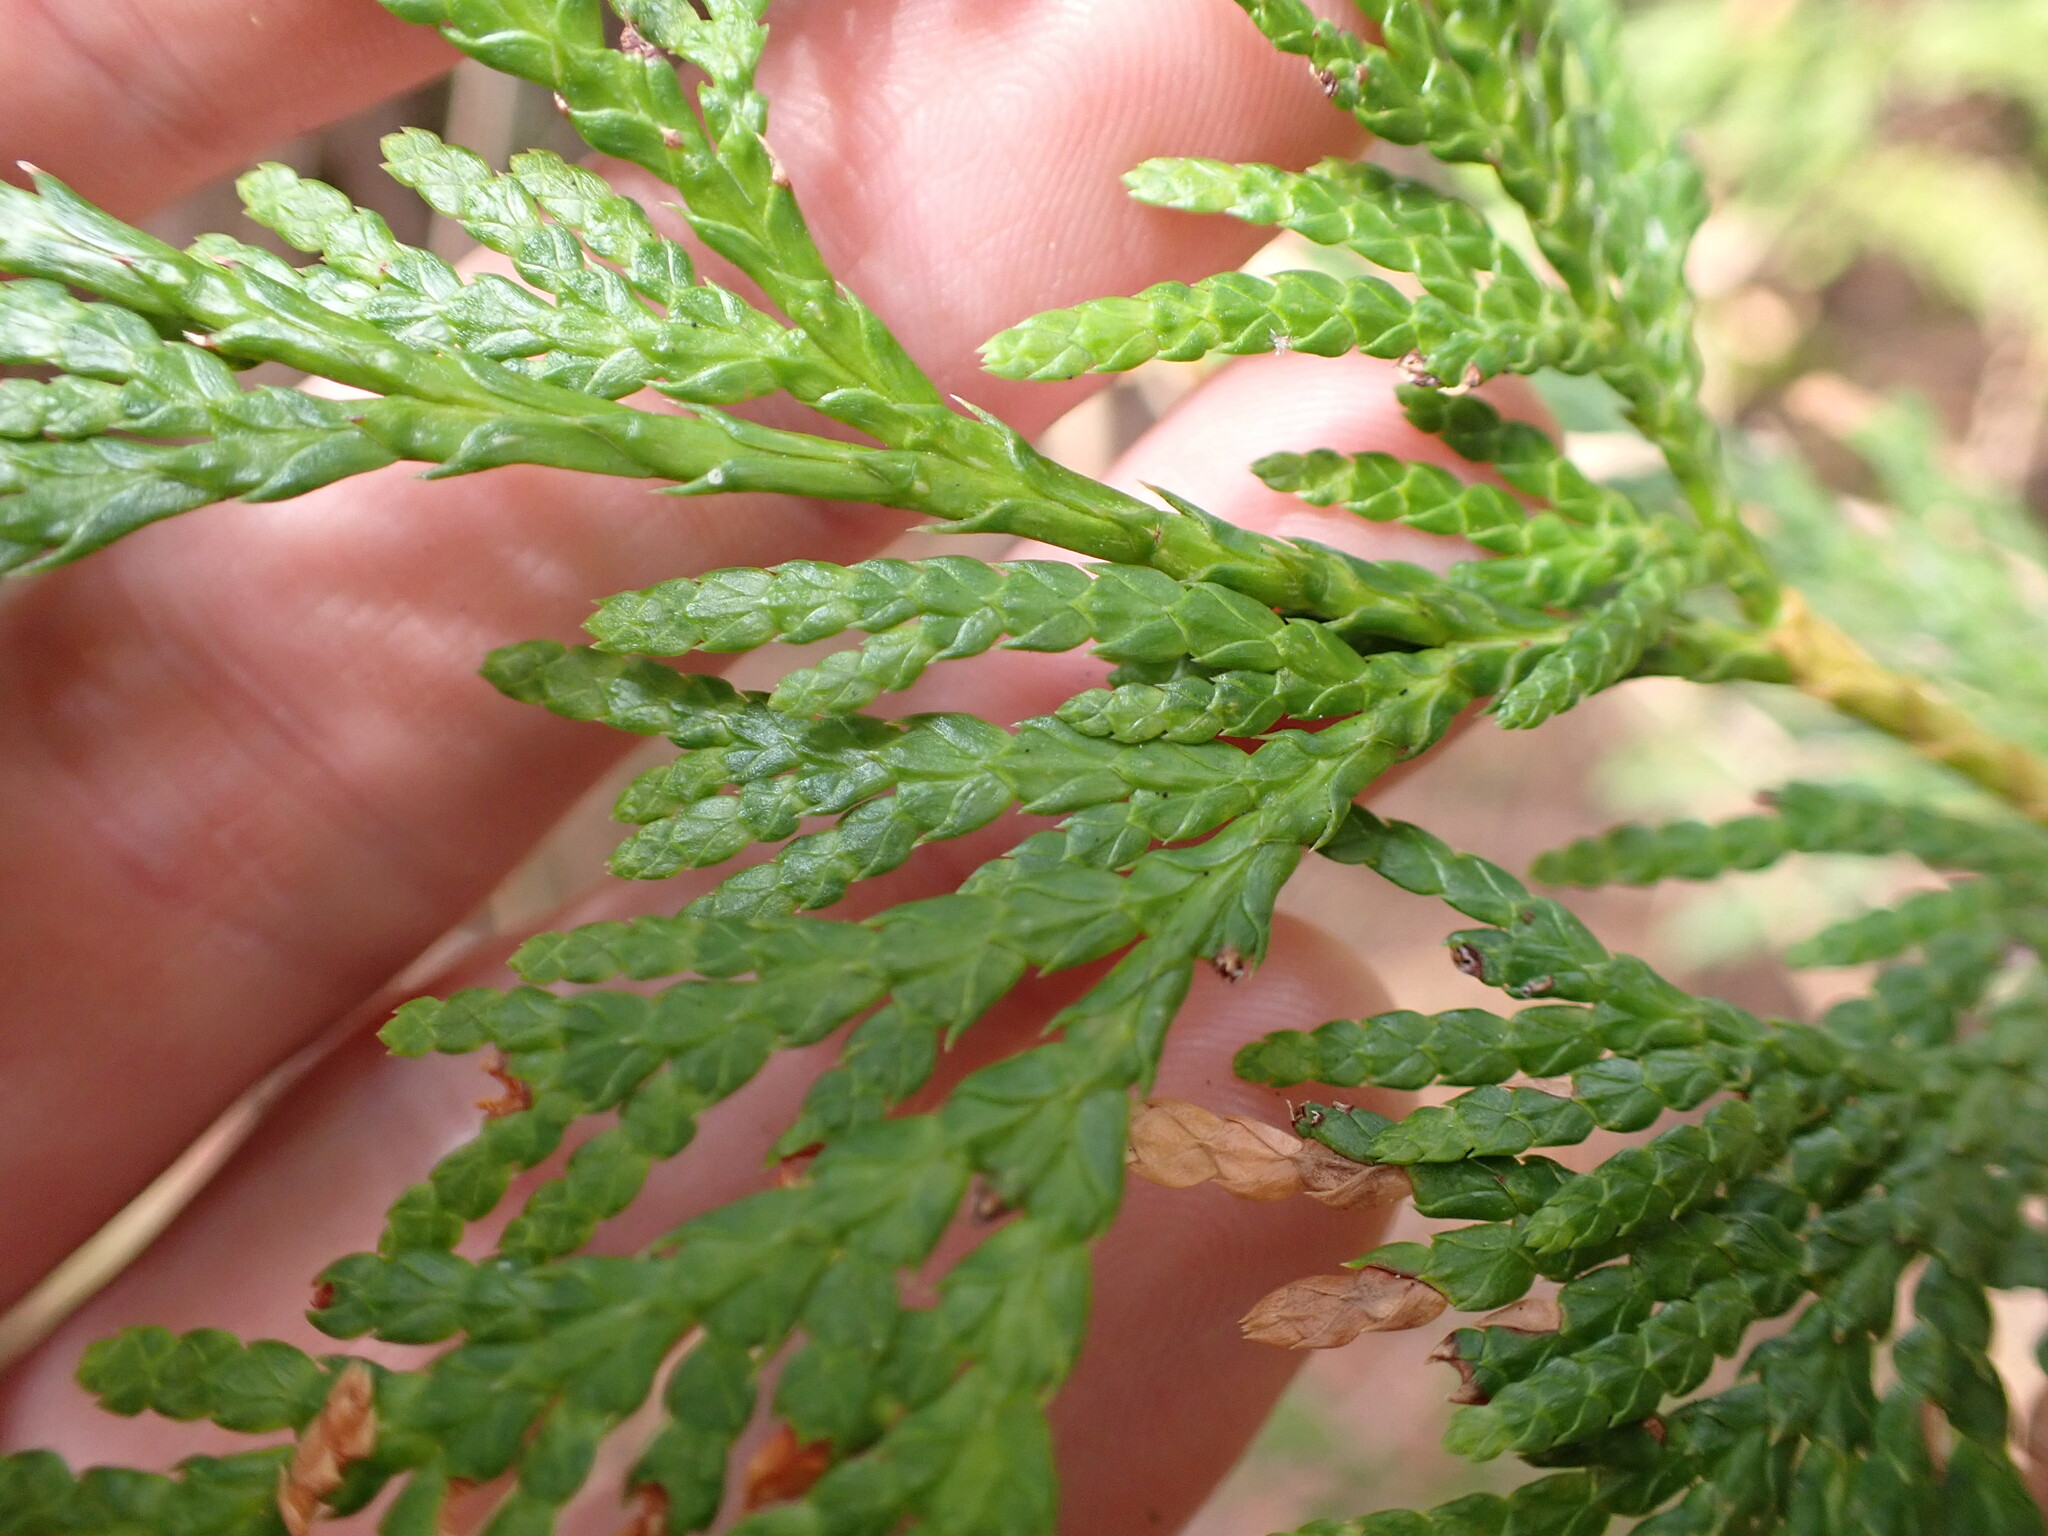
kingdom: Plantae
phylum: Tracheophyta
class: Pinopsida
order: Pinales
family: Cupressaceae
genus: Thuja
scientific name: Thuja plicata
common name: Western red-cedar
